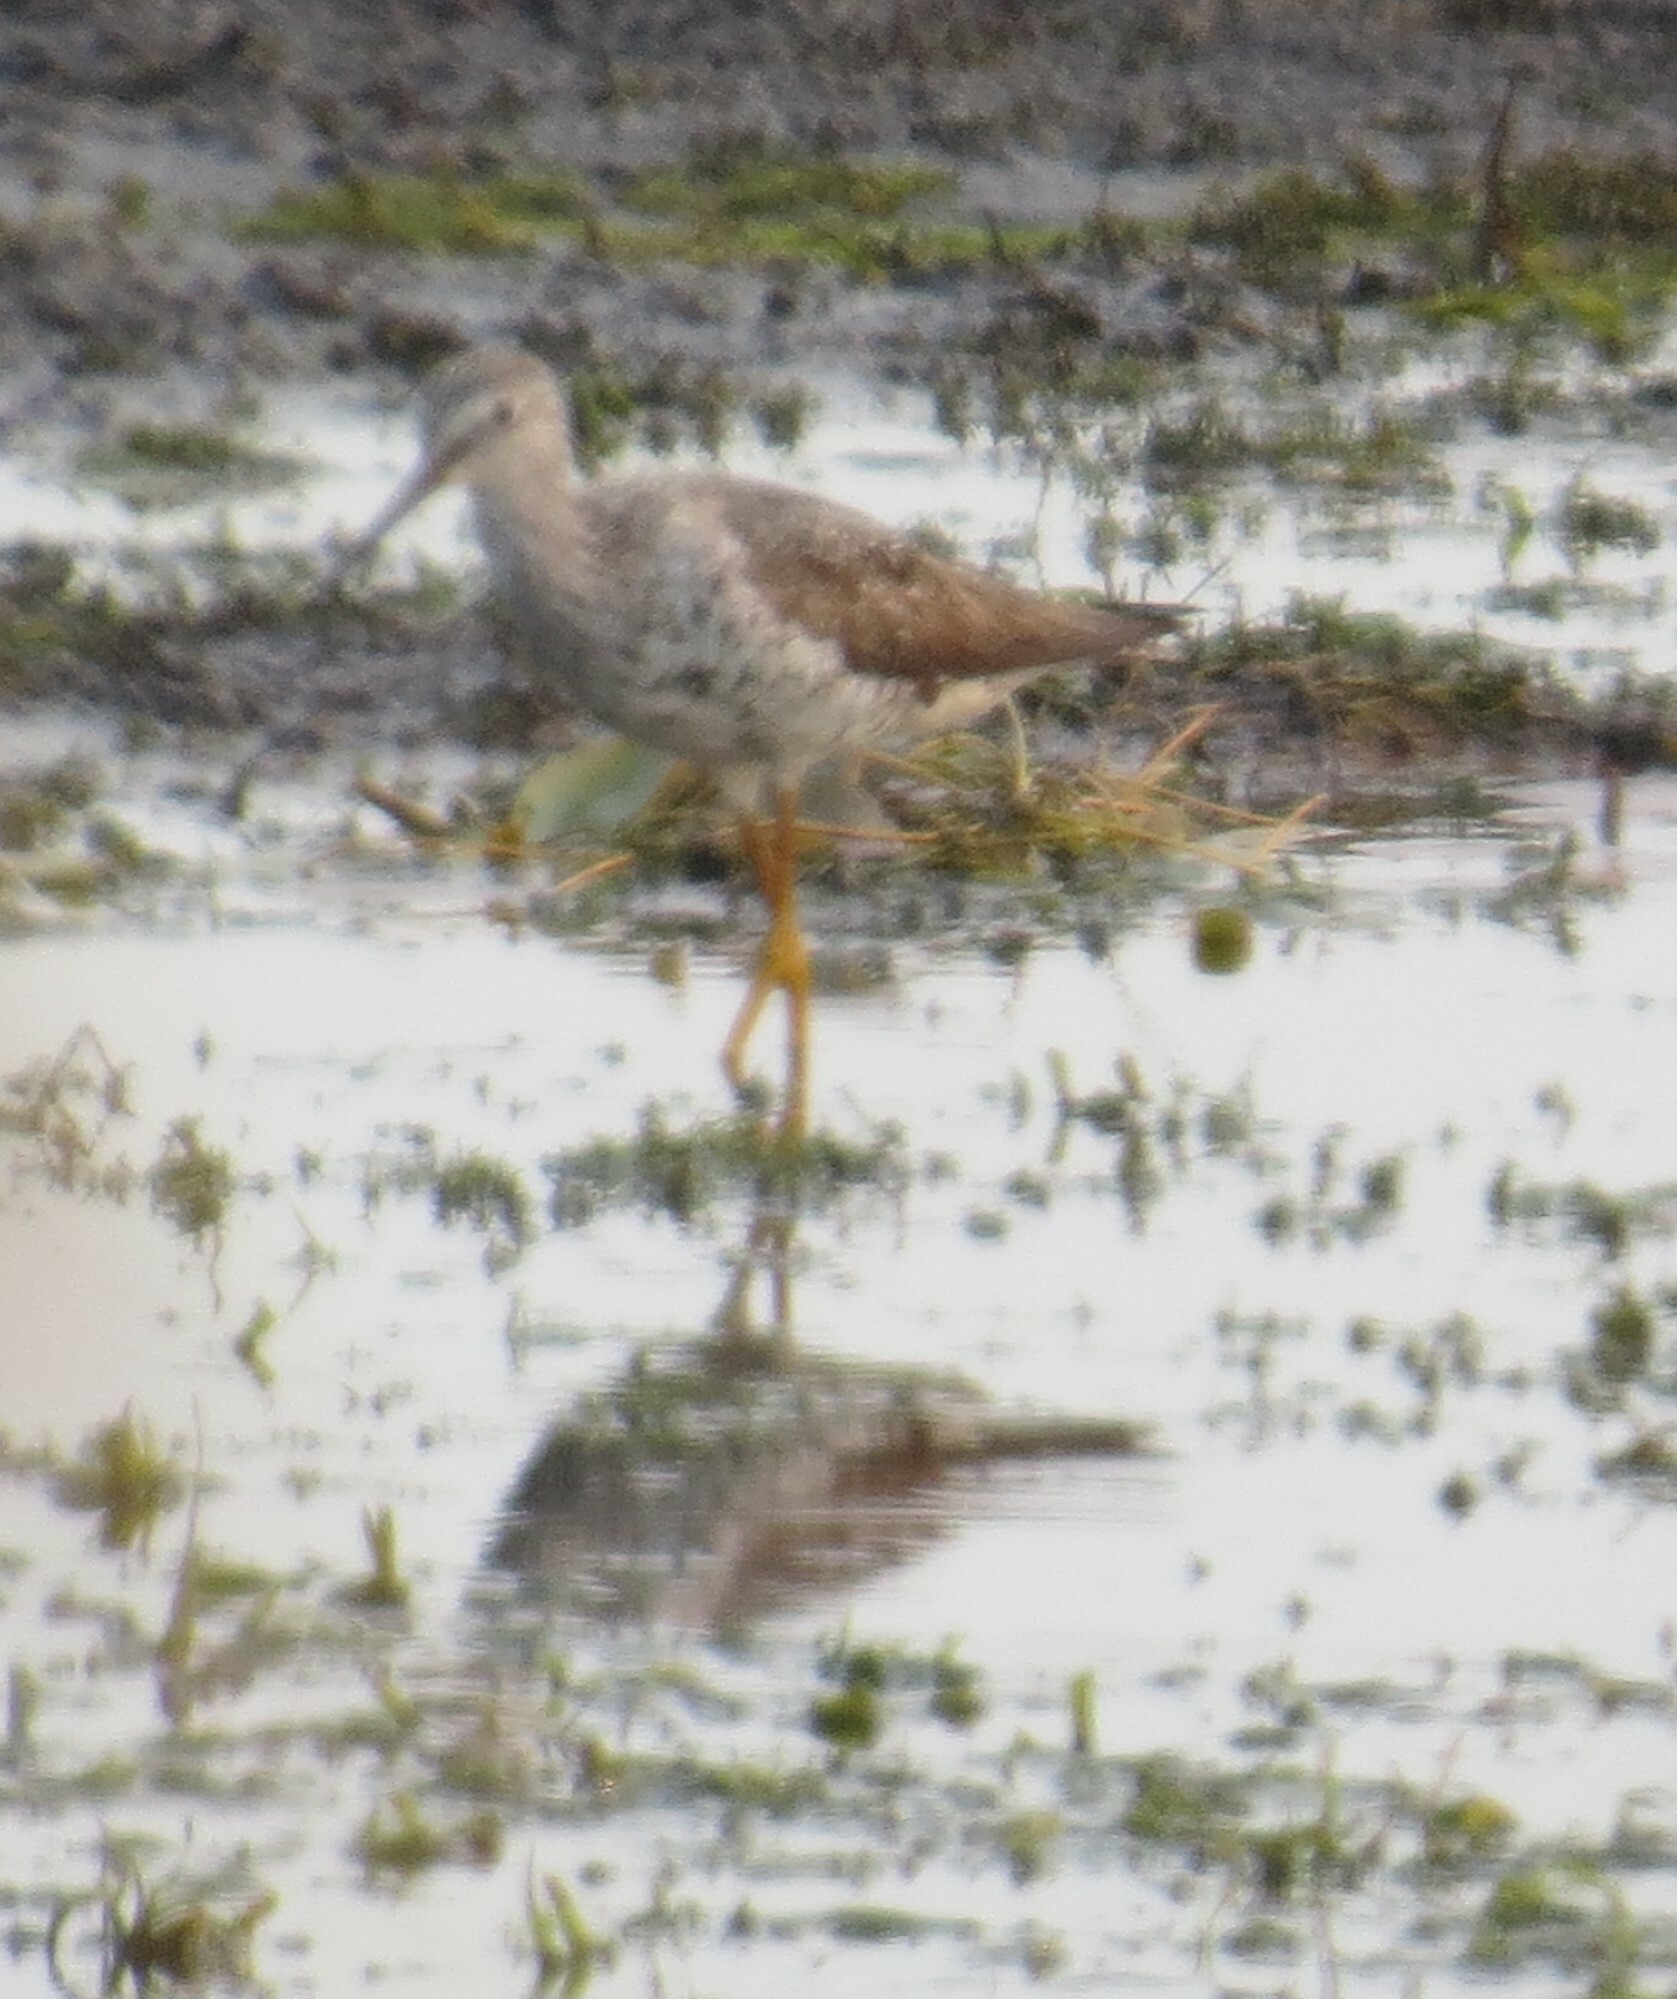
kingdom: Animalia
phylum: Chordata
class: Aves
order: Charadriiformes
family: Scolopacidae
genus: Tringa
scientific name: Tringa melanoleuca
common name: Greater yellowlegs
